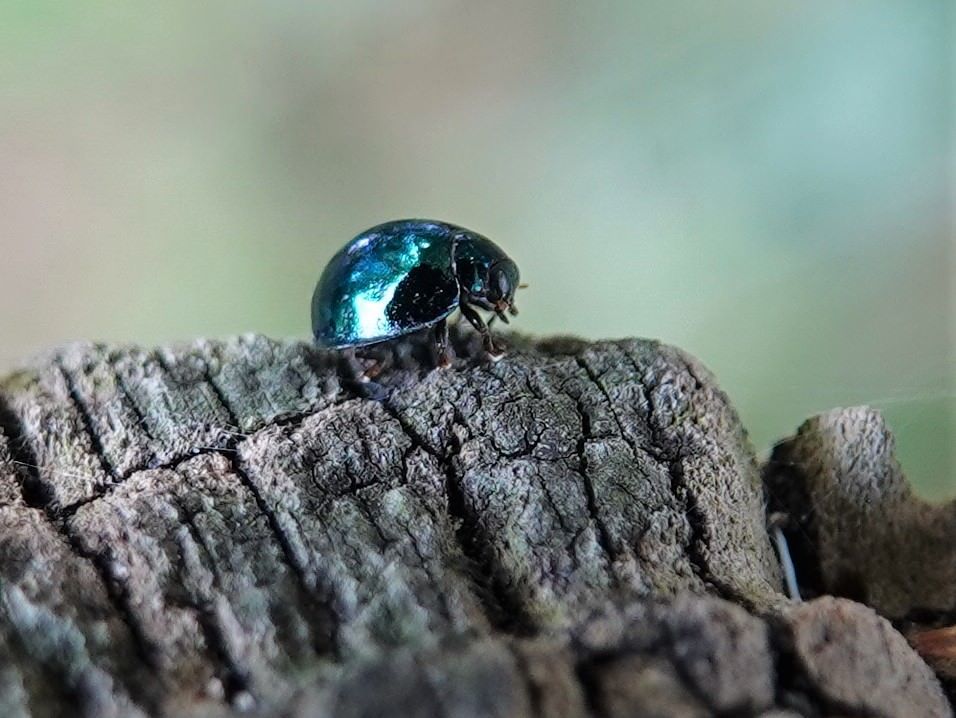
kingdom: Animalia
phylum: Arthropoda
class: Insecta
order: Coleoptera
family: Coccinellidae
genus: Halmus
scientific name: Halmus chalybeus
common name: Steel blue ladybird beetle
